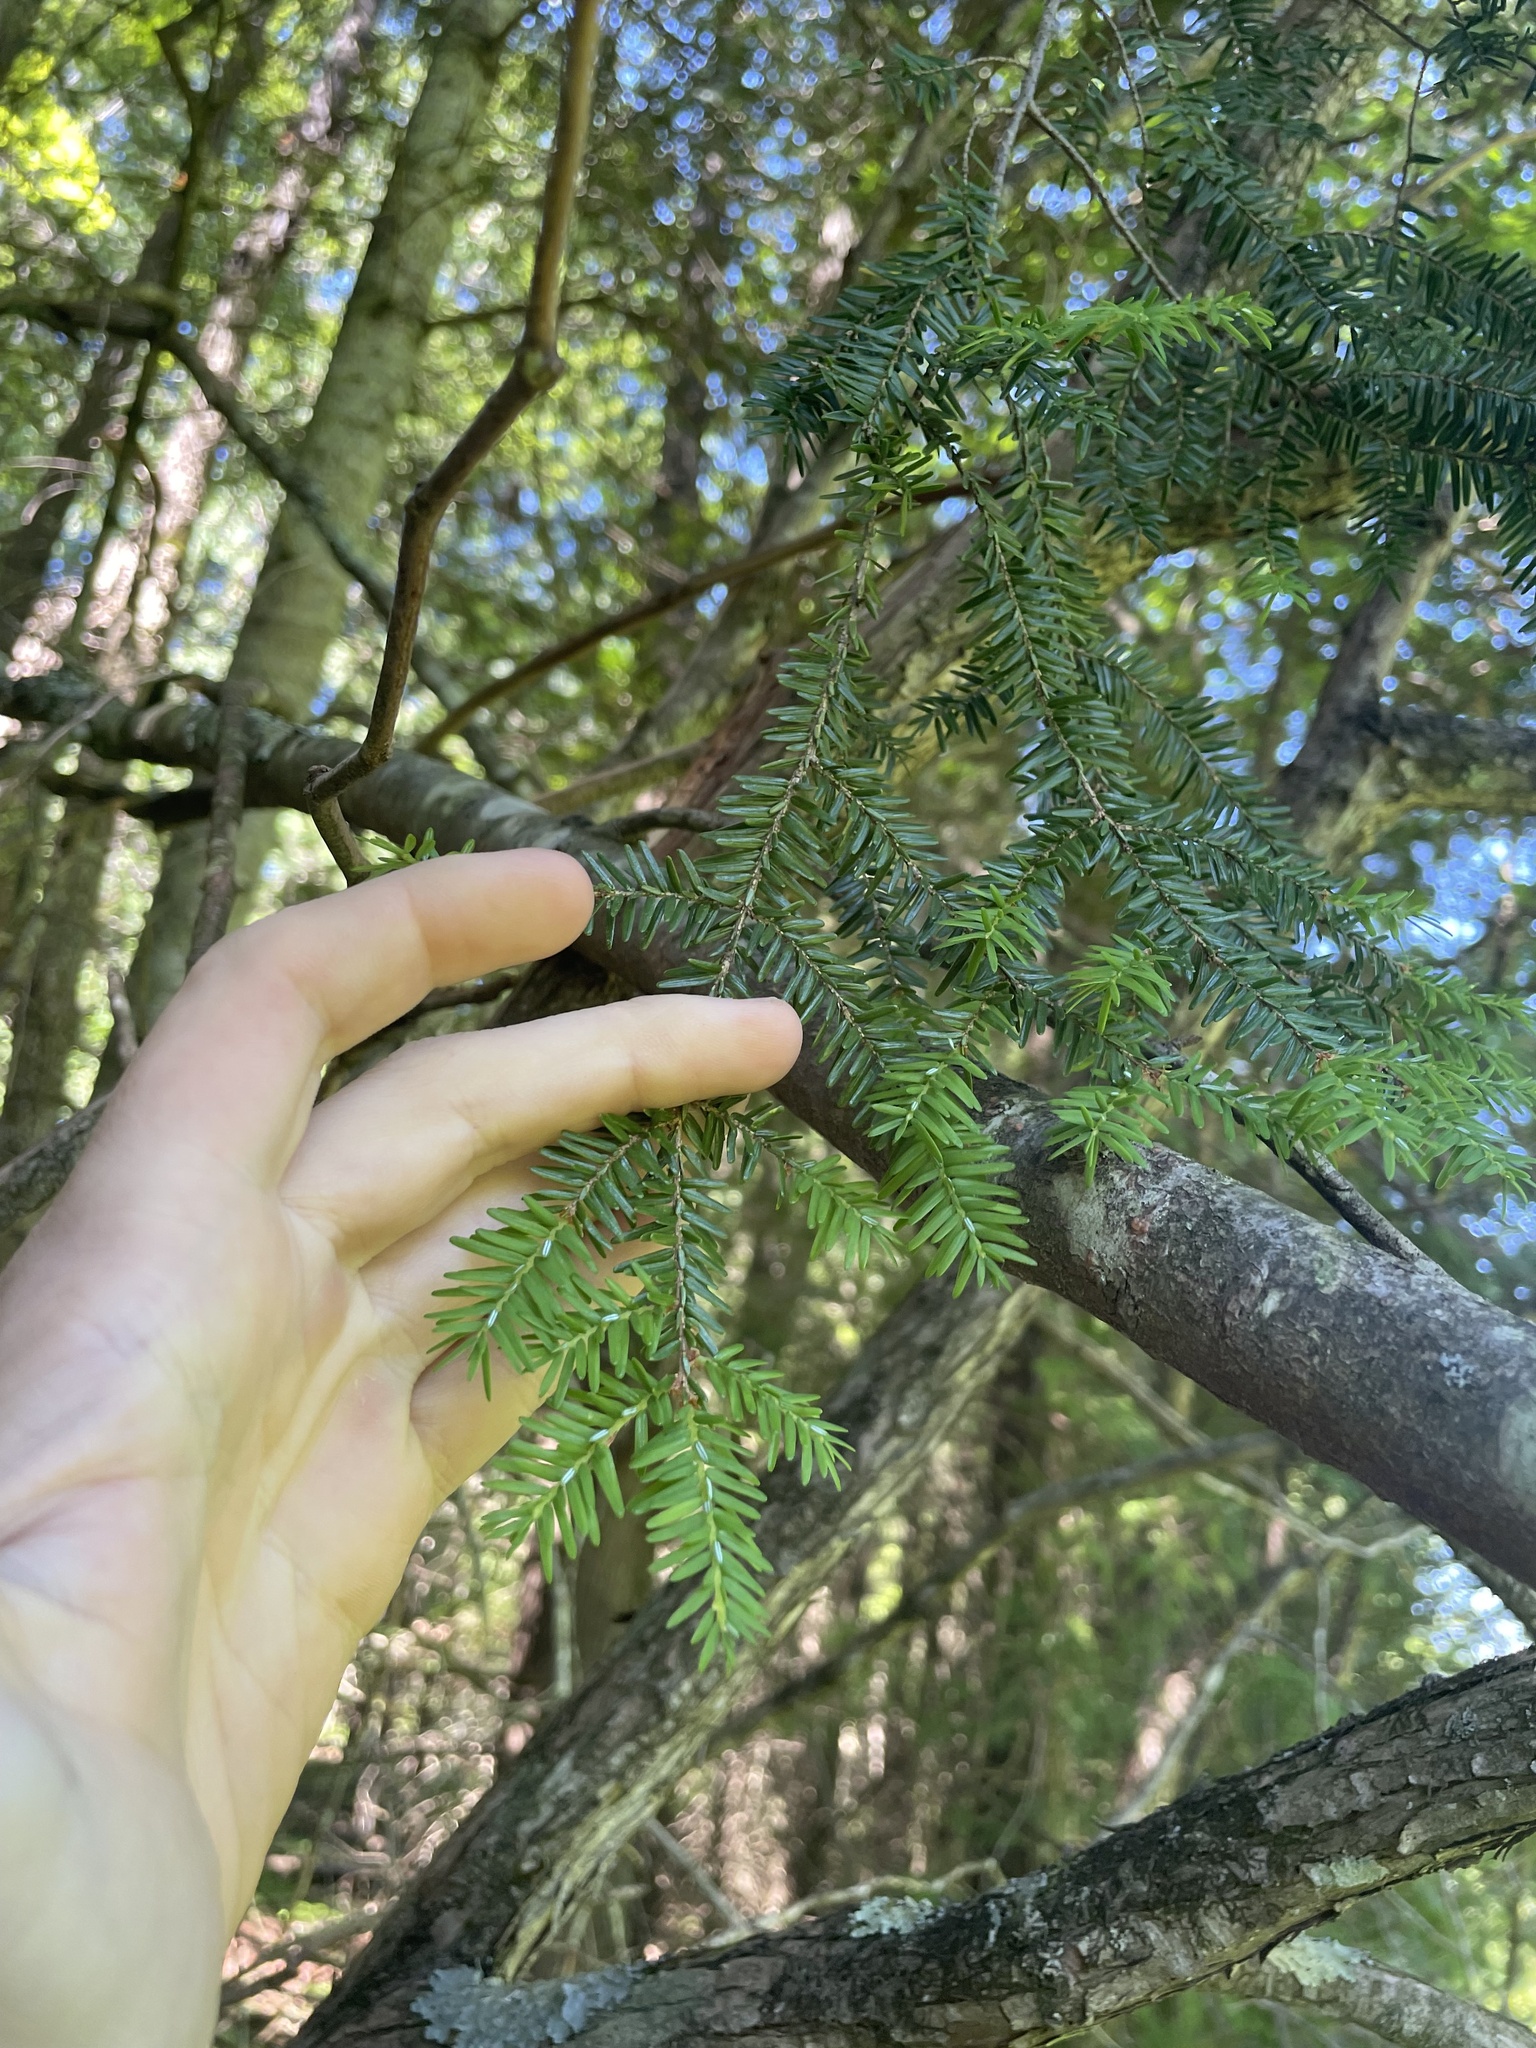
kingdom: Plantae
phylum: Tracheophyta
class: Pinopsida
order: Pinales
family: Pinaceae
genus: Tsuga
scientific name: Tsuga canadensis
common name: Eastern hemlock
